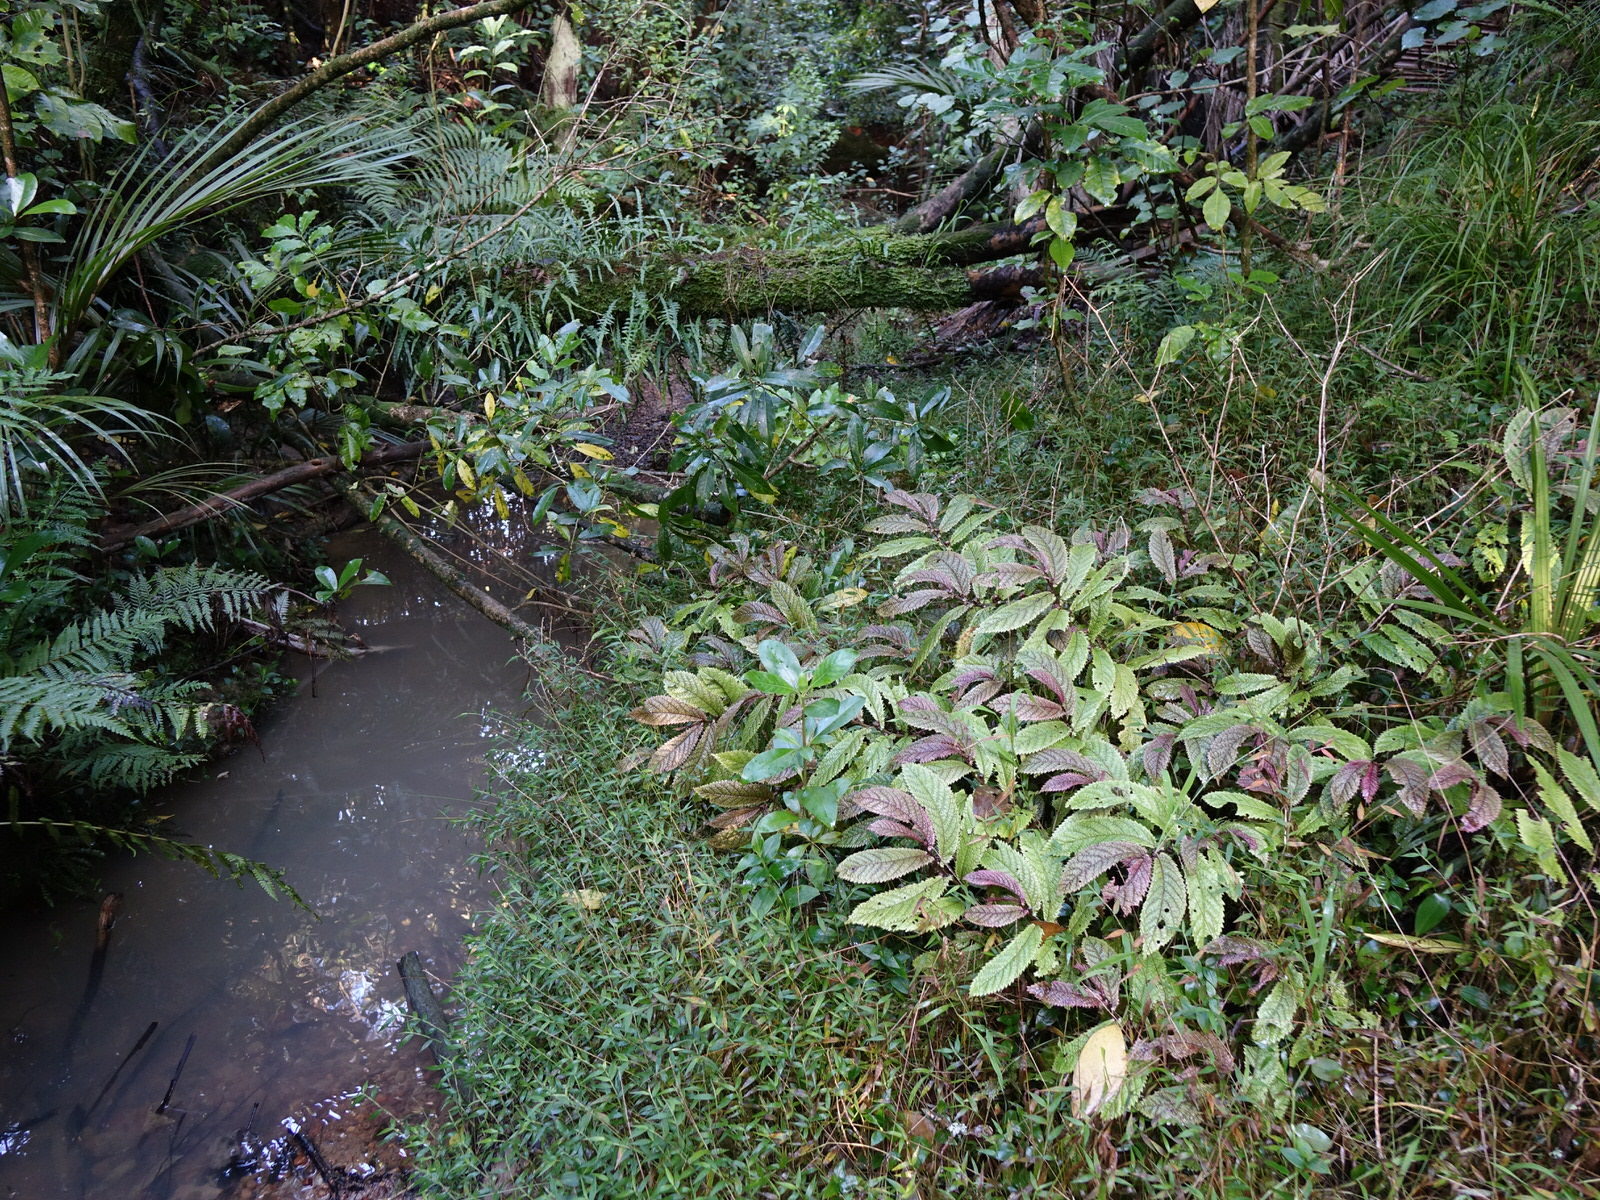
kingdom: Plantae
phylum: Tracheophyta
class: Magnoliopsida
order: Rosales
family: Urticaceae
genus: Elatostema
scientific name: Elatostema rugosum
